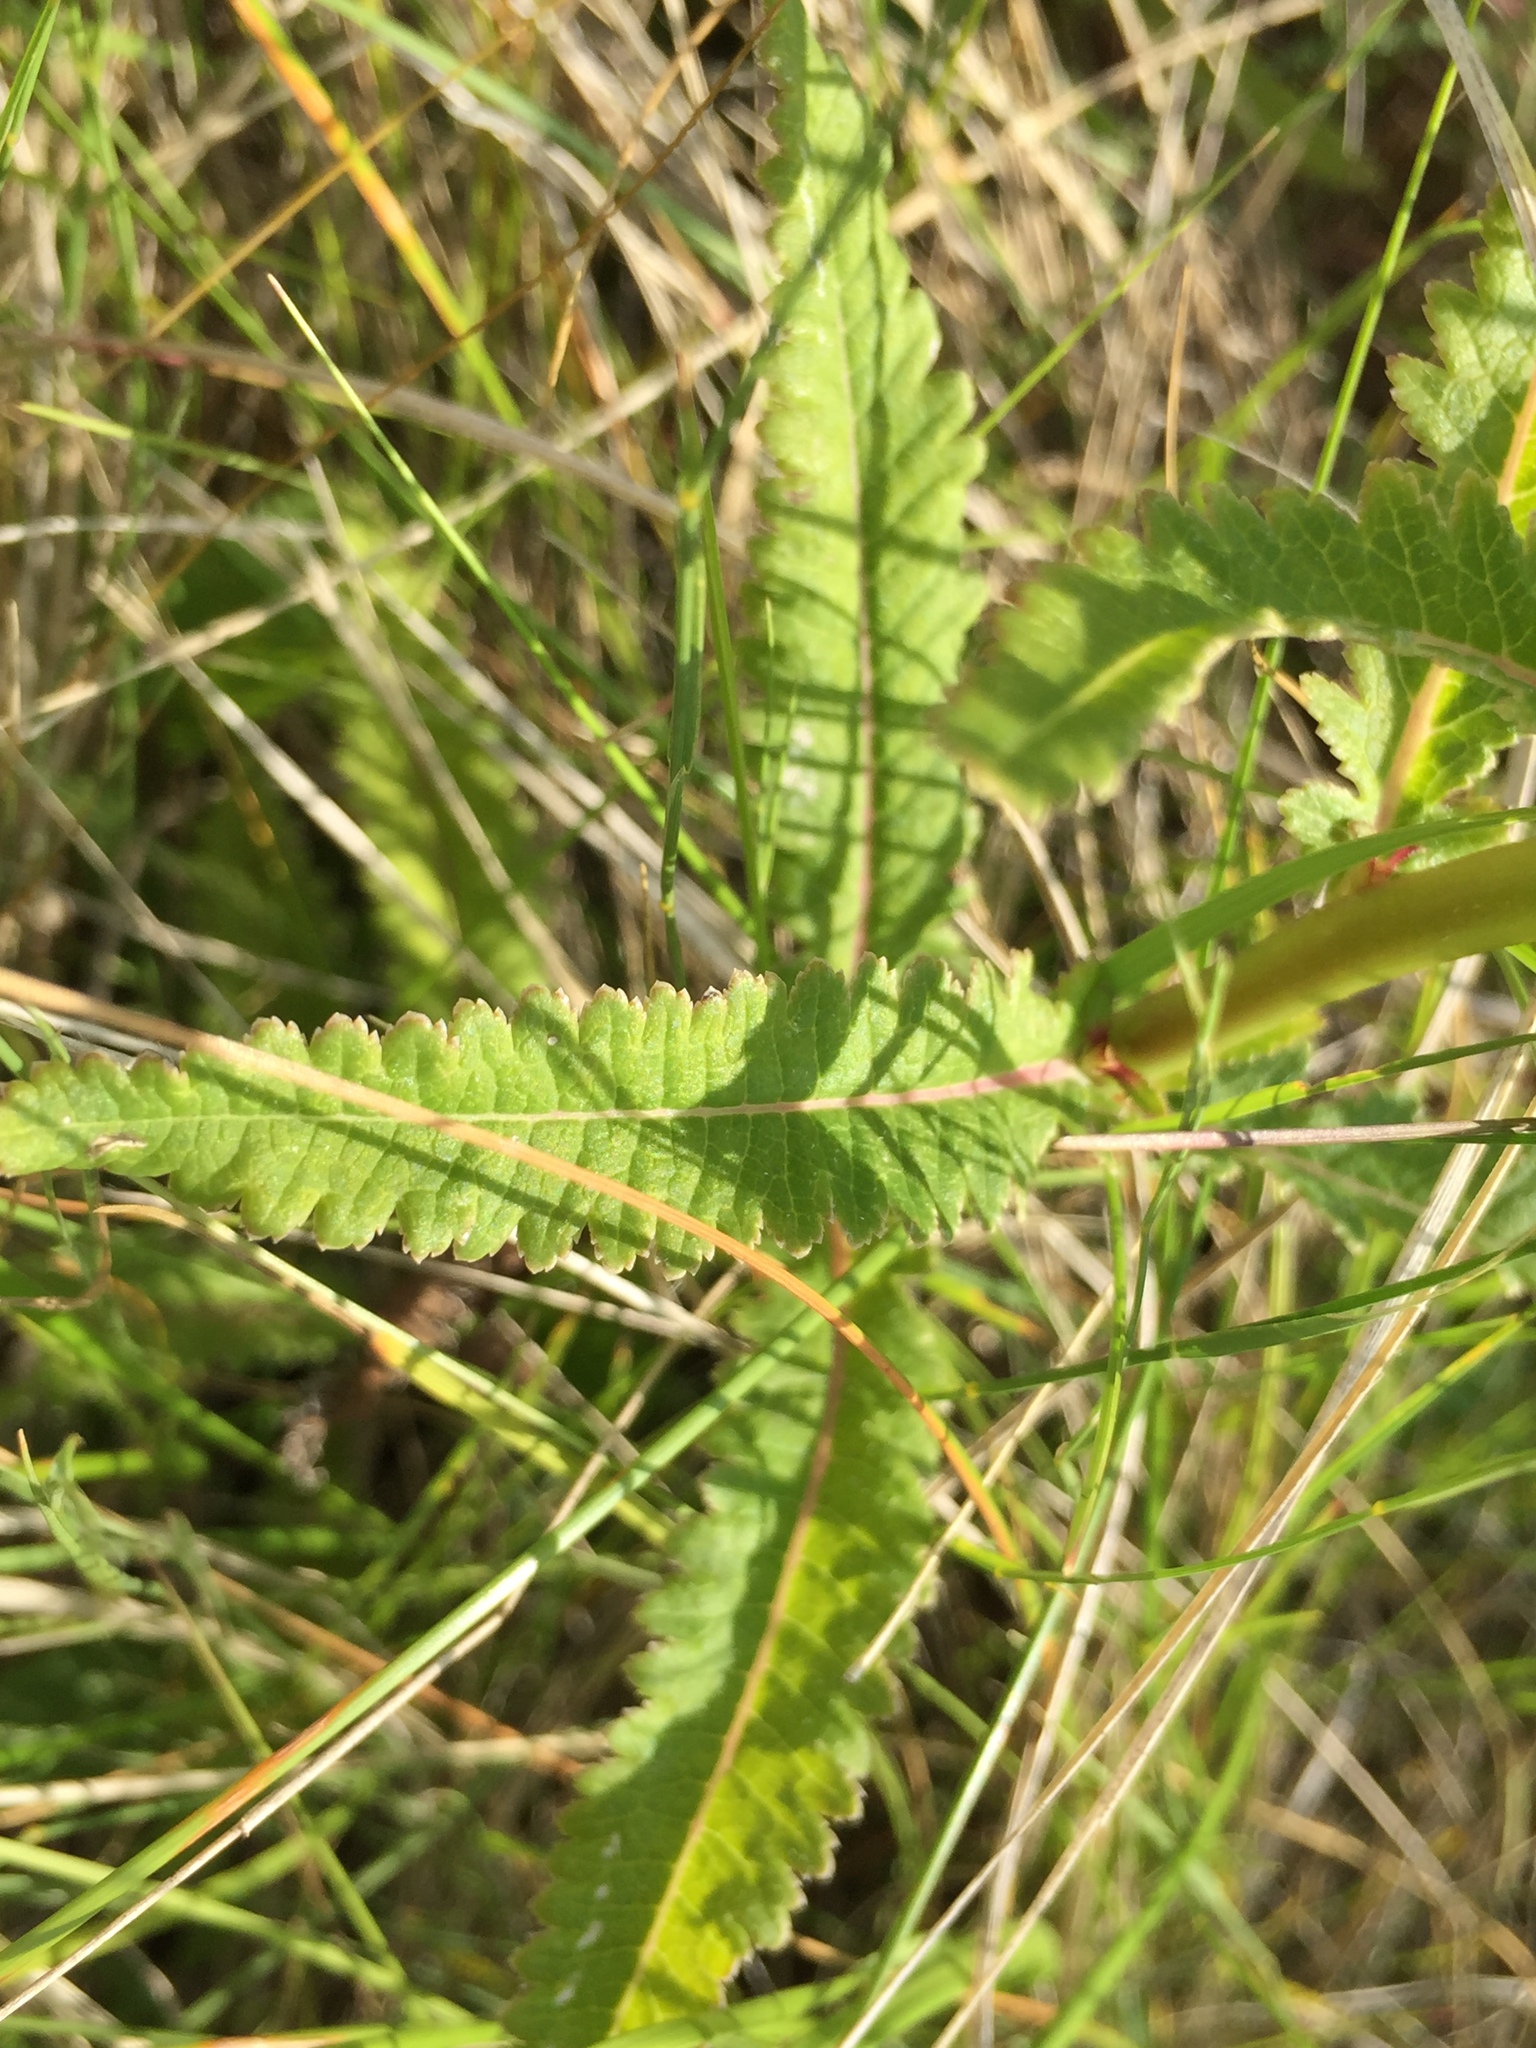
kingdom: Plantae
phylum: Tracheophyta
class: Magnoliopsida
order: Lamiales
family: Orobanchaceae
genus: Pedicularis
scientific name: Pedicularis lanceolata
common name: Swamp lousewort
